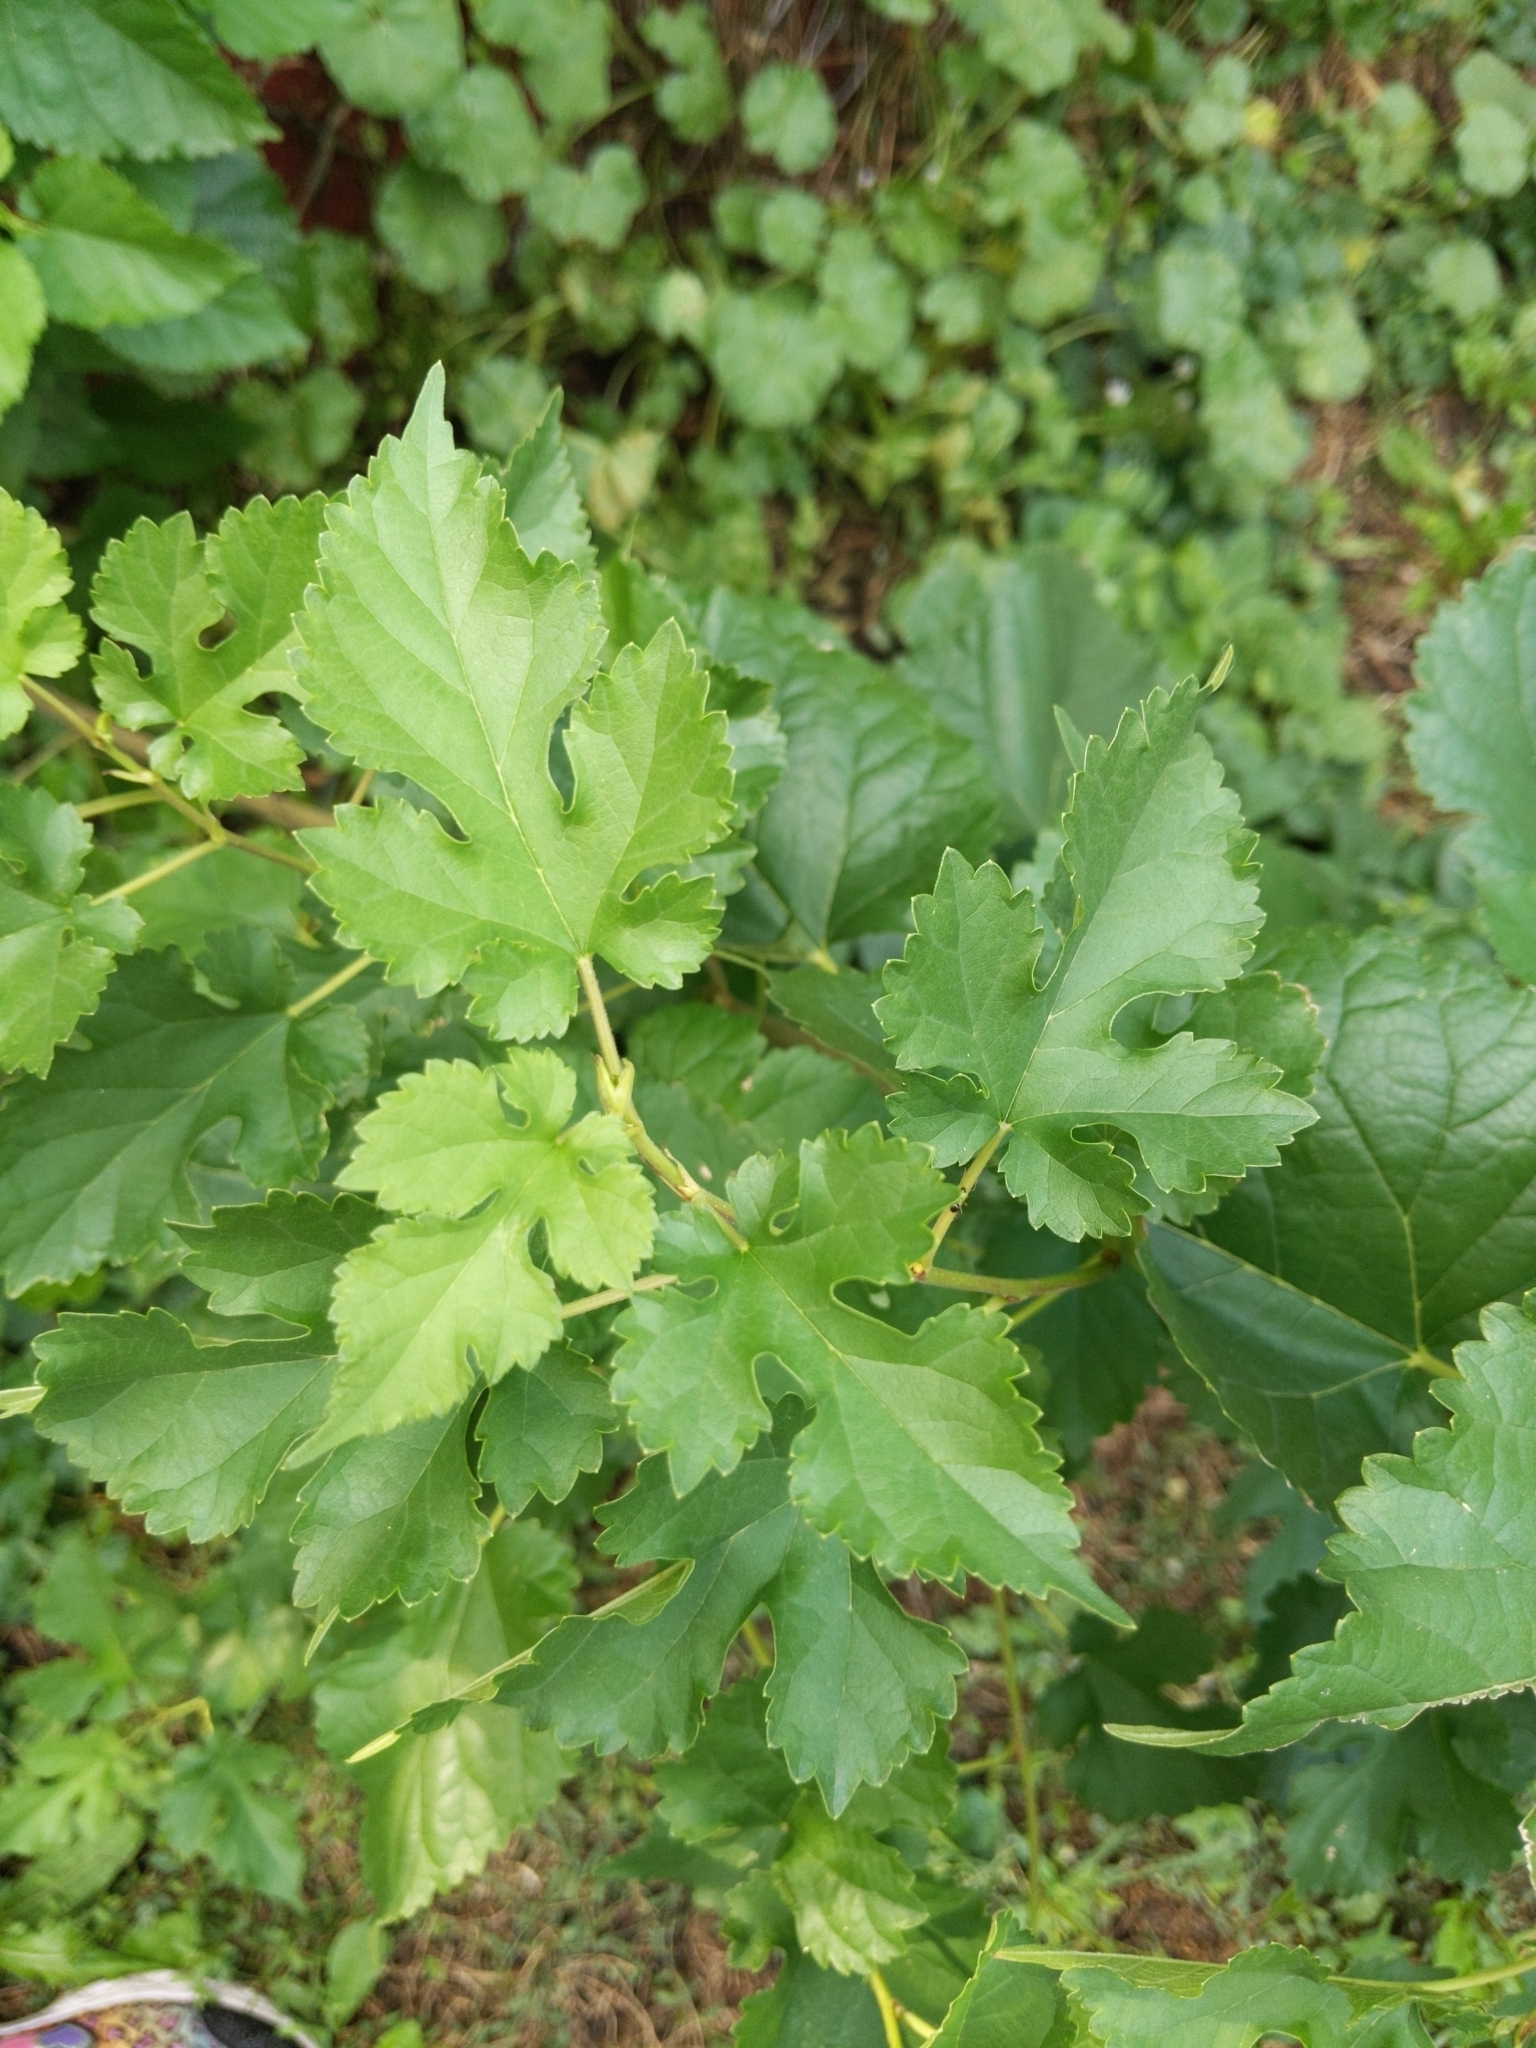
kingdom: Plantae
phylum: Tracheophyta
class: Magnoliopsida
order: Rosales
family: Moraceae
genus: Morus
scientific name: Morus alba
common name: White mulberry
